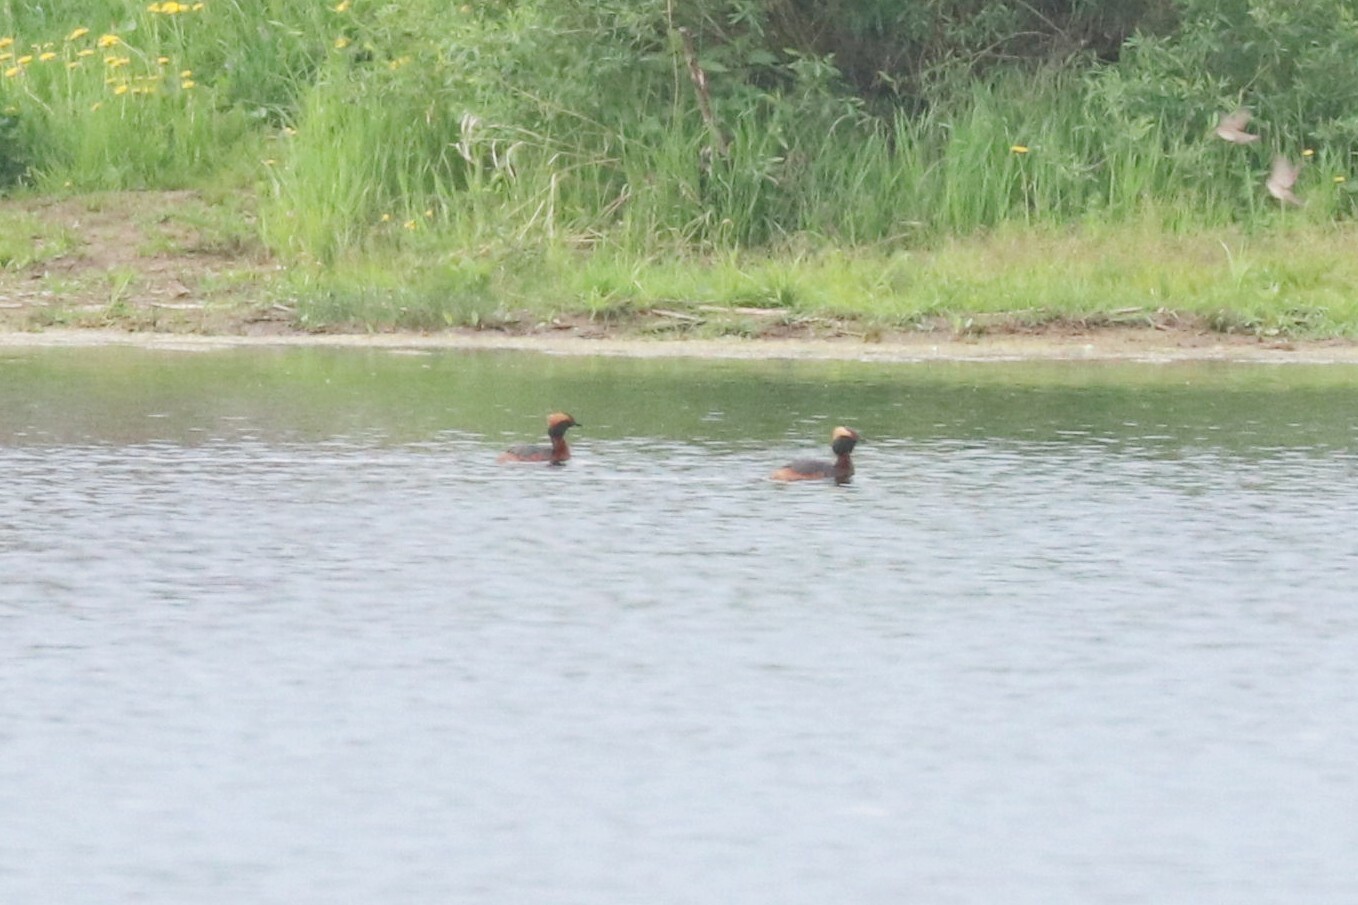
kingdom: Animalia
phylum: Chordata
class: Aves
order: Podicipediformes
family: Podicipedidae
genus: Podiceps
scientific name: Podiceps auritus
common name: Horned grebe
